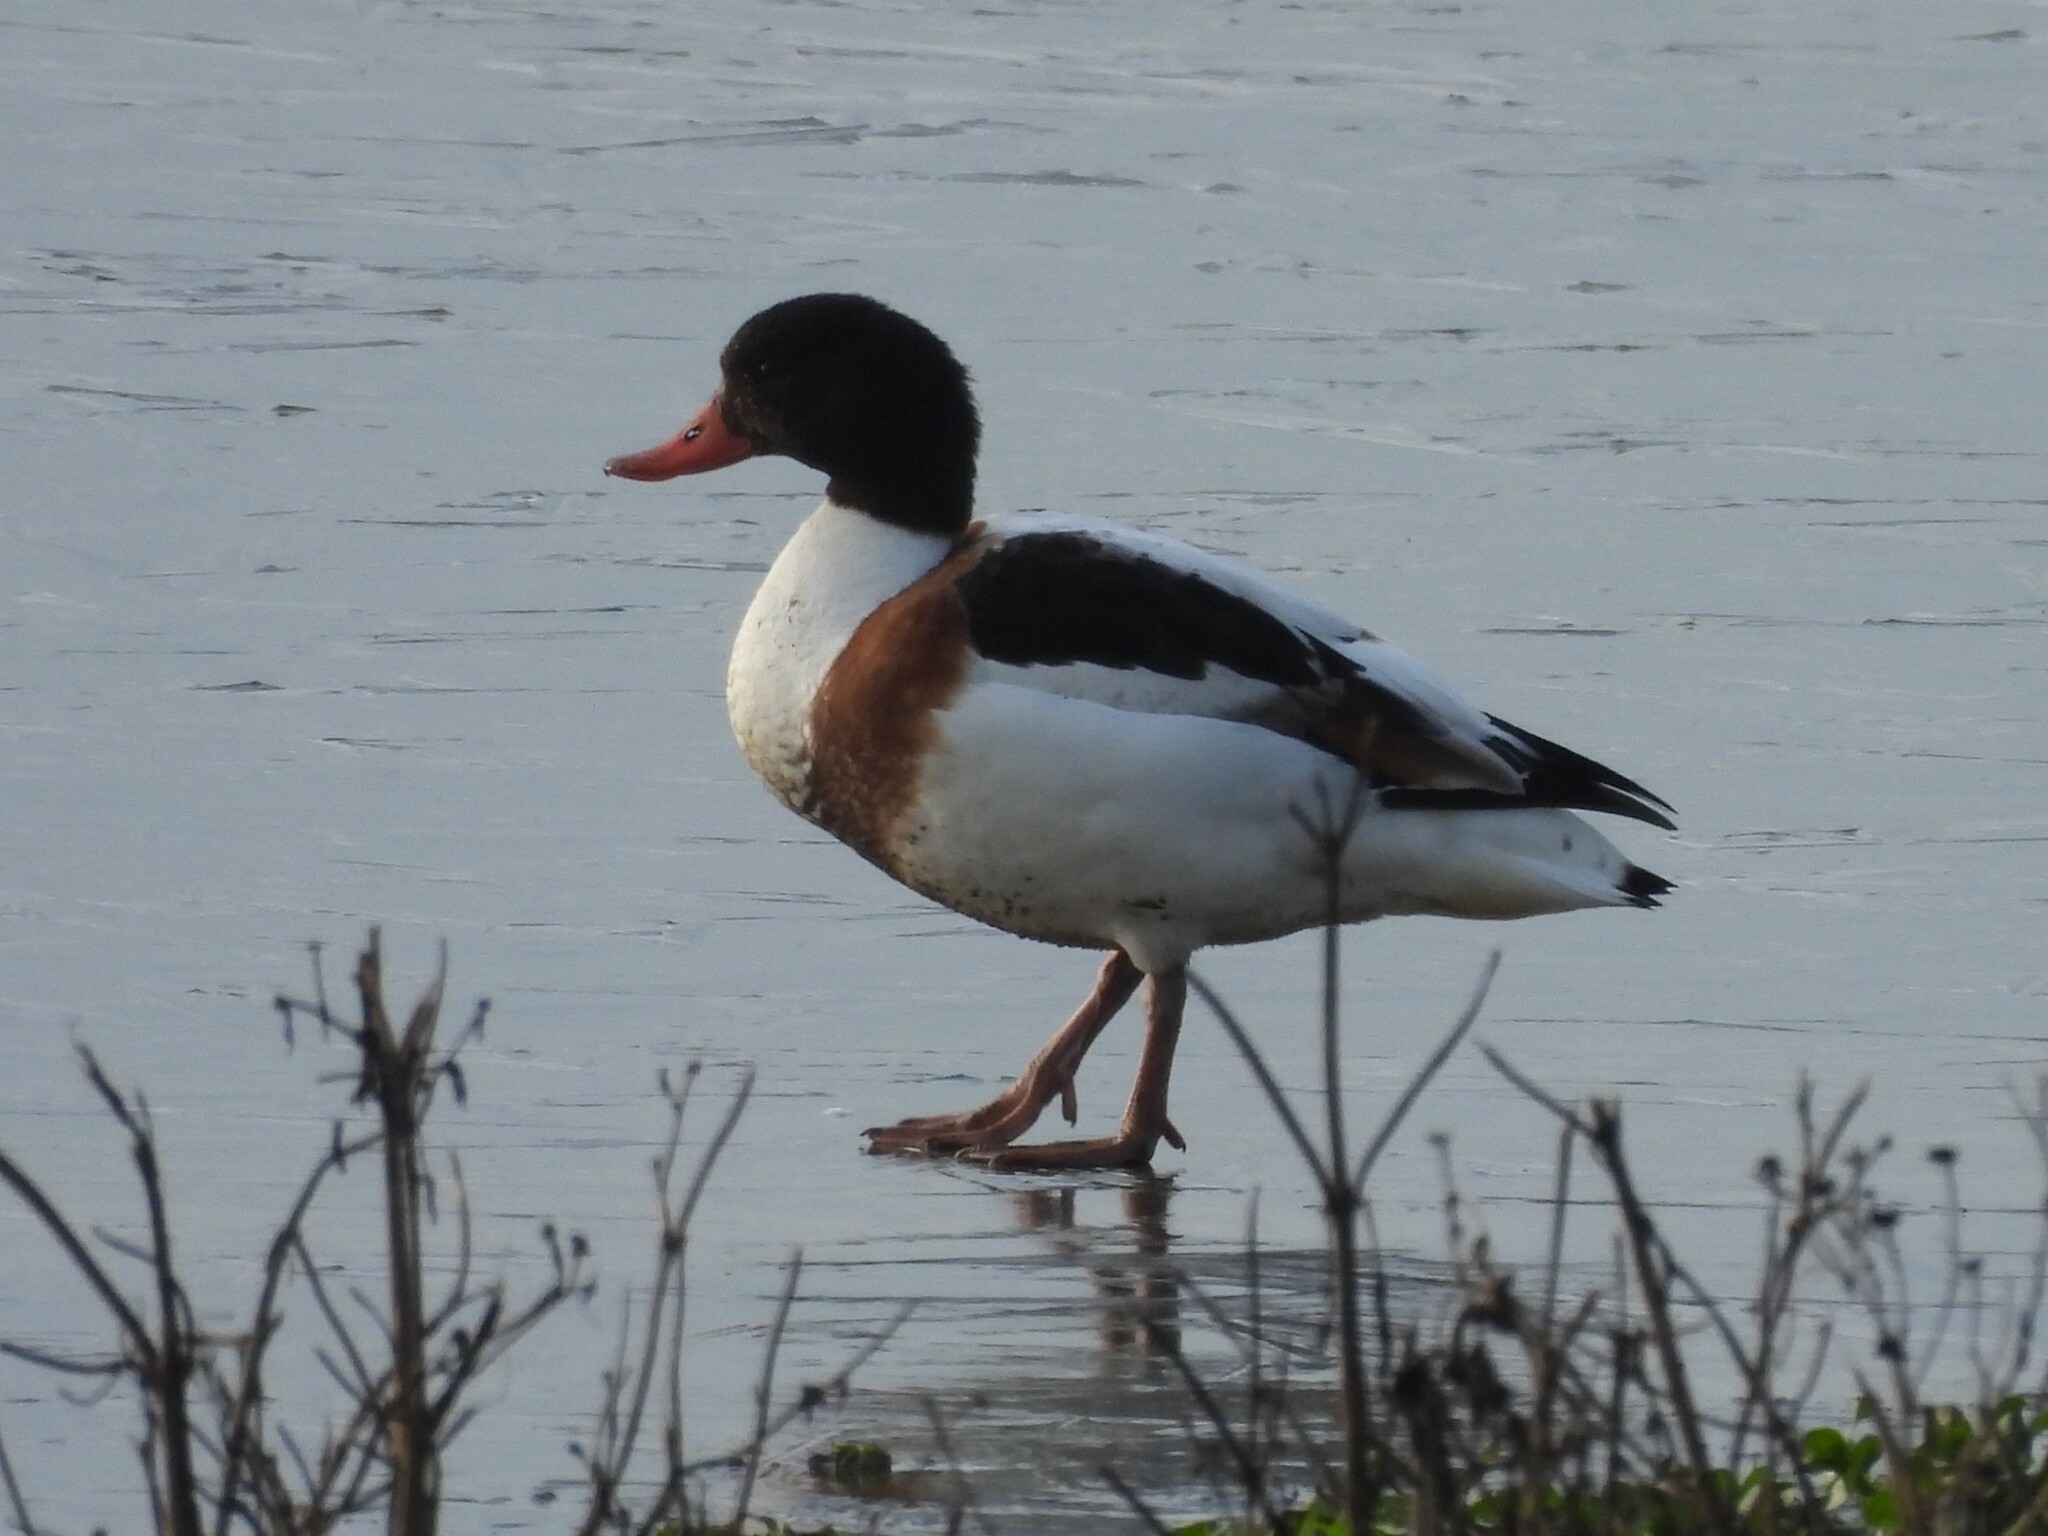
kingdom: Animalia
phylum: Chordata
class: Aves
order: Anseriformes
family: Anatidae
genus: Tadorna
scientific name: Tadorna tadorna
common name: Common shelduck
